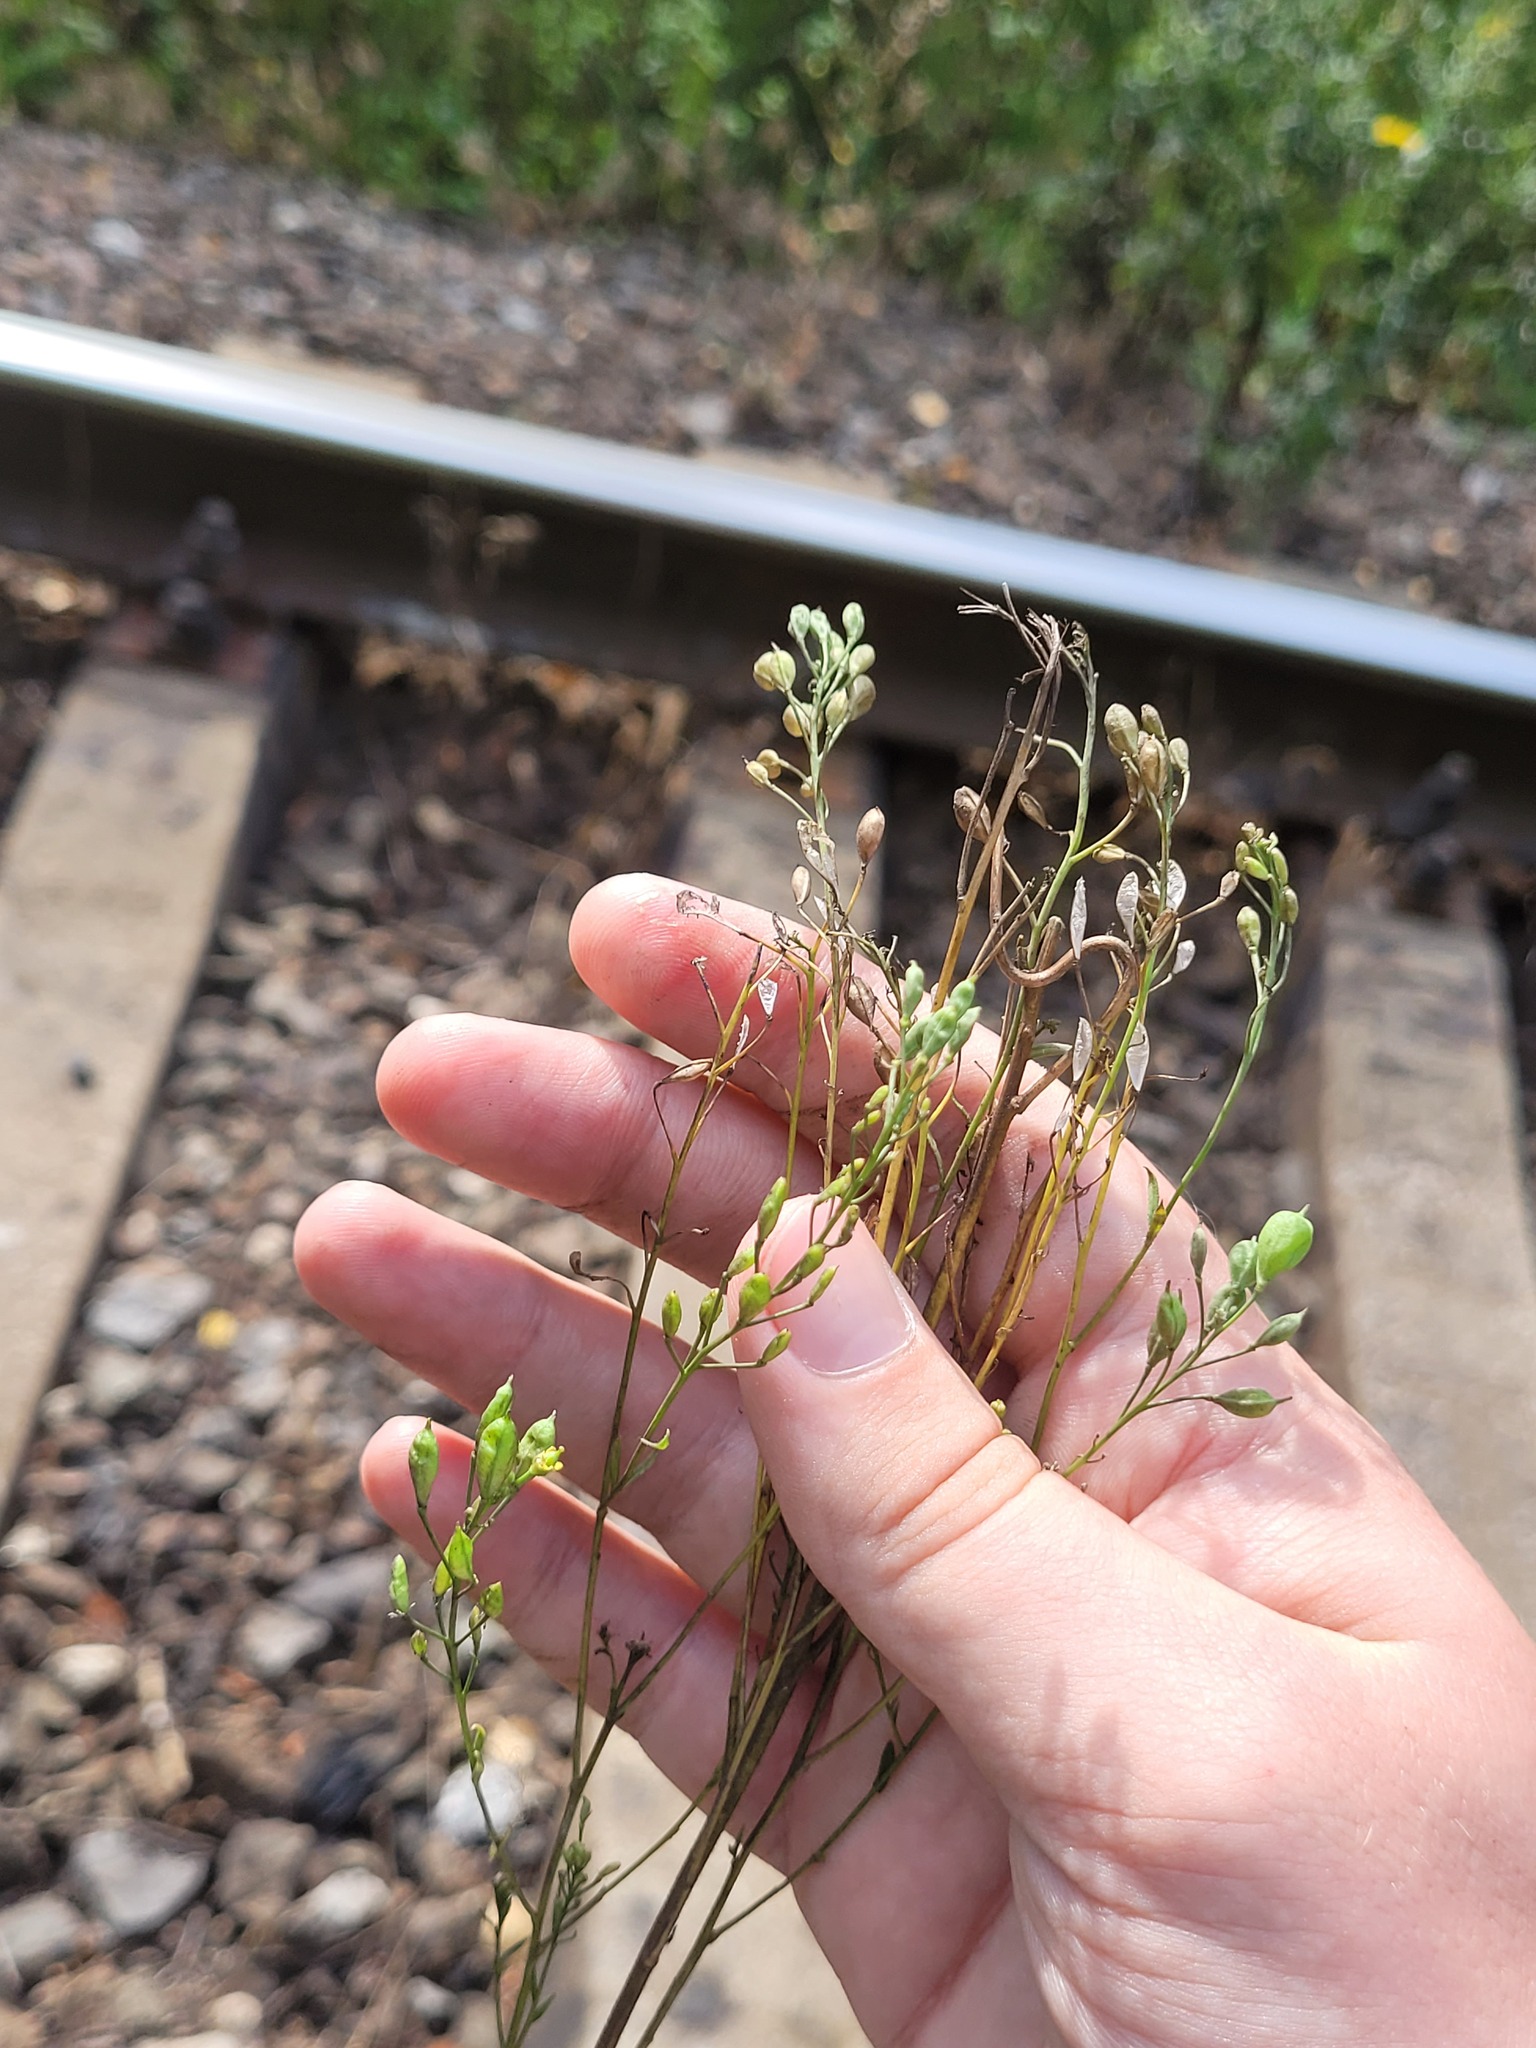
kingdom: Plantae
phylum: Tracheophyta
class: Magnoliopsida
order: Brassicales
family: Brassicaceae
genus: Camelina
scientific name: Camelina sativa
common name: Gold-of-pleasure
